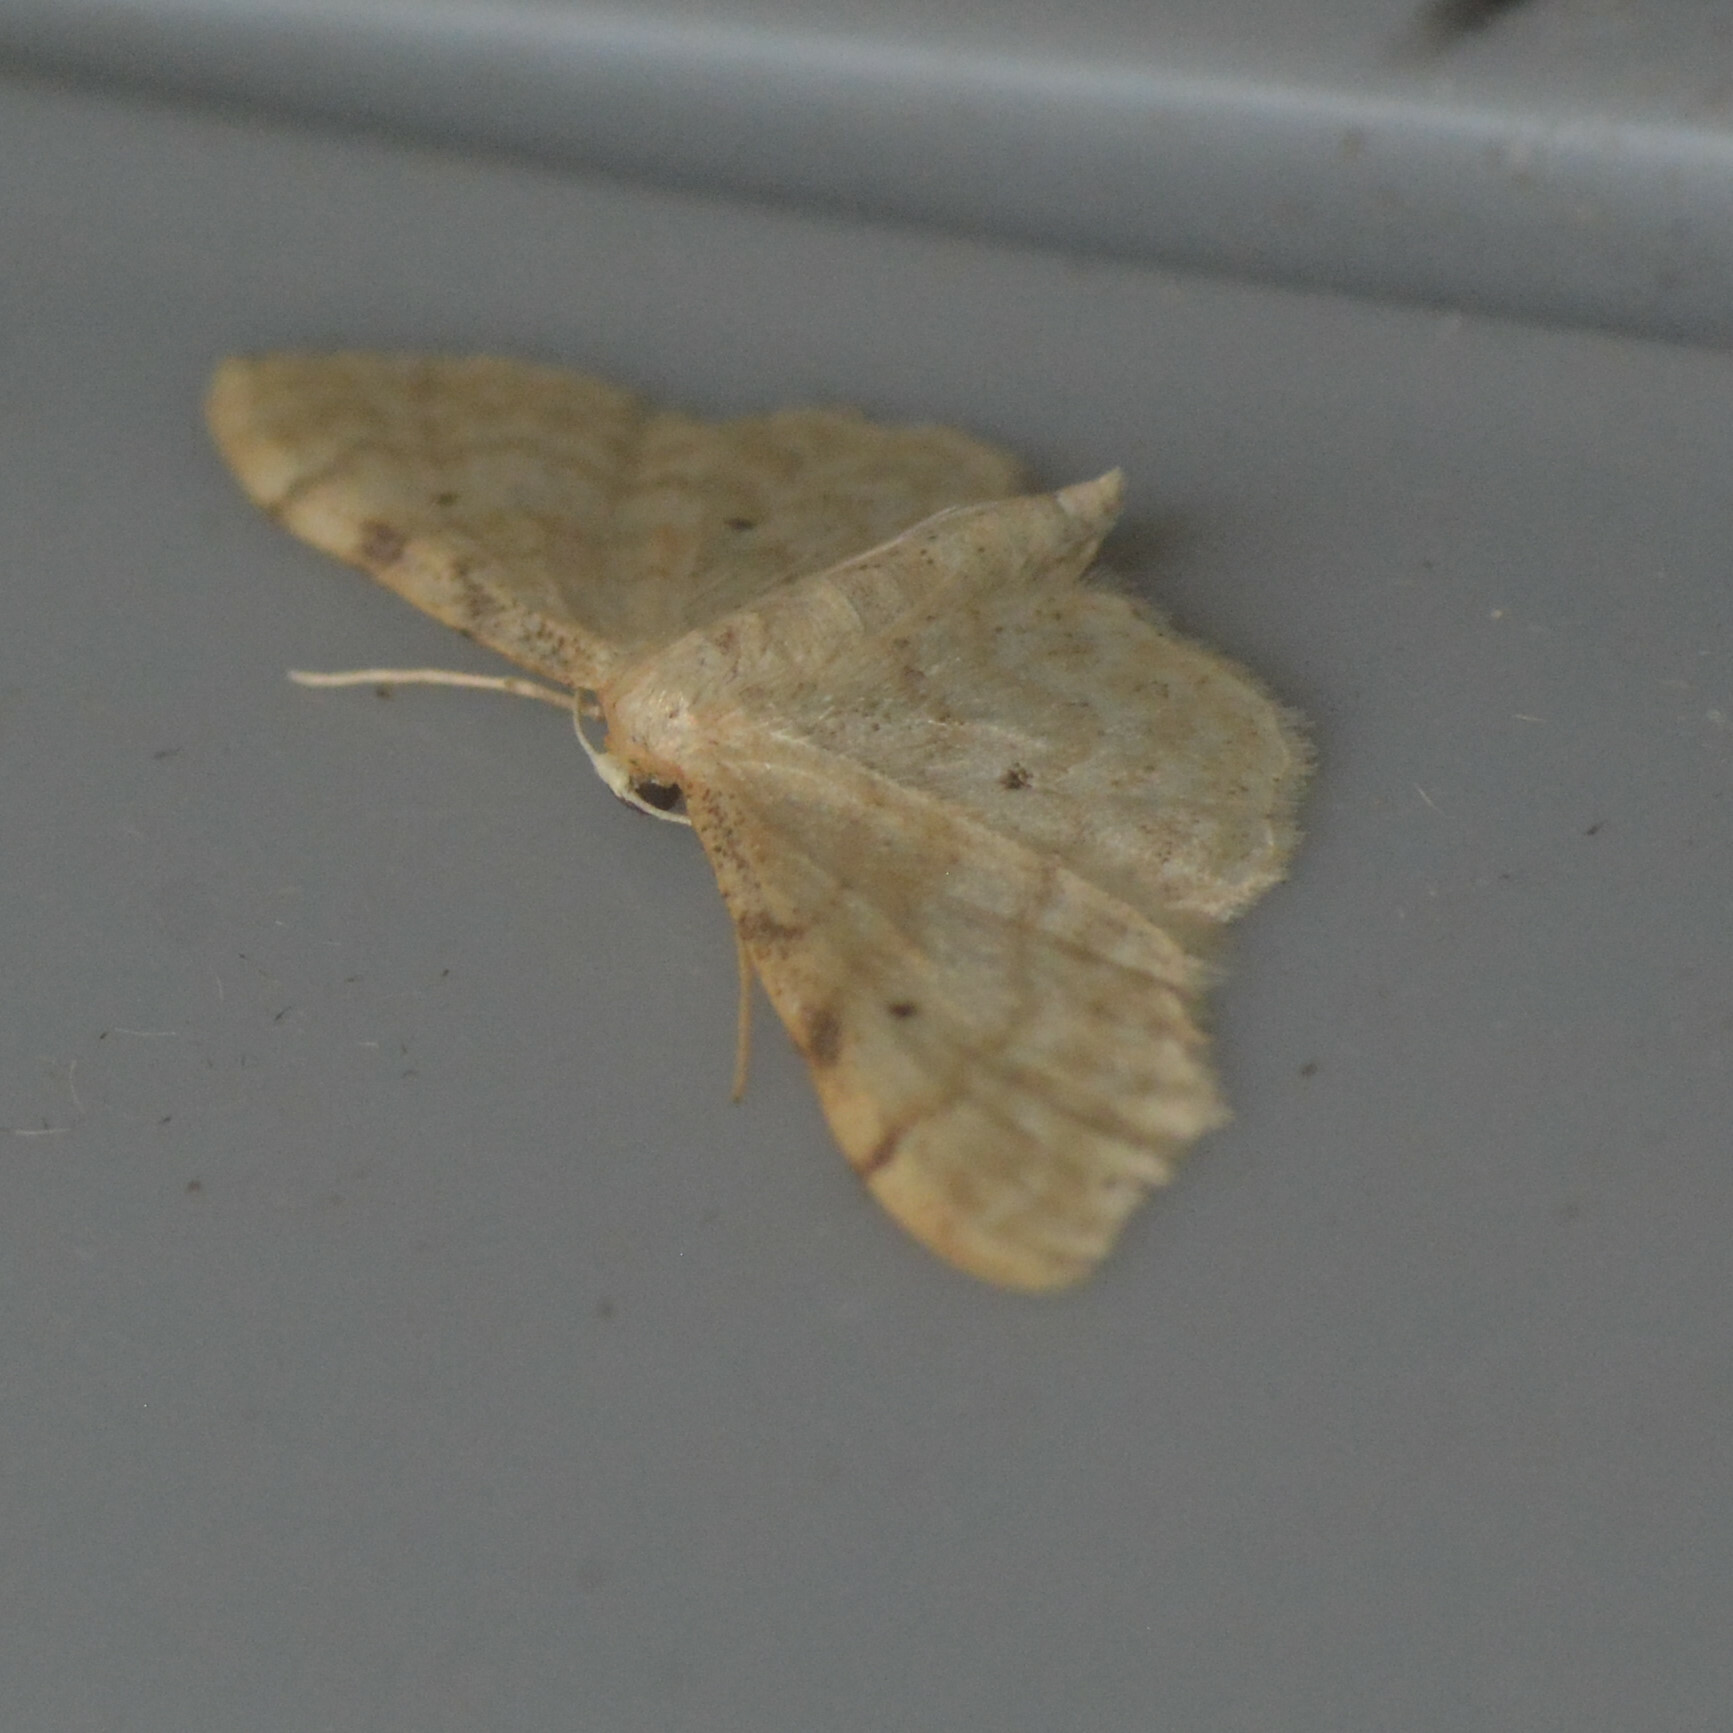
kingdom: Animalia
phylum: Arthropoda
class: Insecta
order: Lepidoptera
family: Geometridae
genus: Idaea
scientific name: Idaea fuscovenosa
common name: Dwarf cream wave
